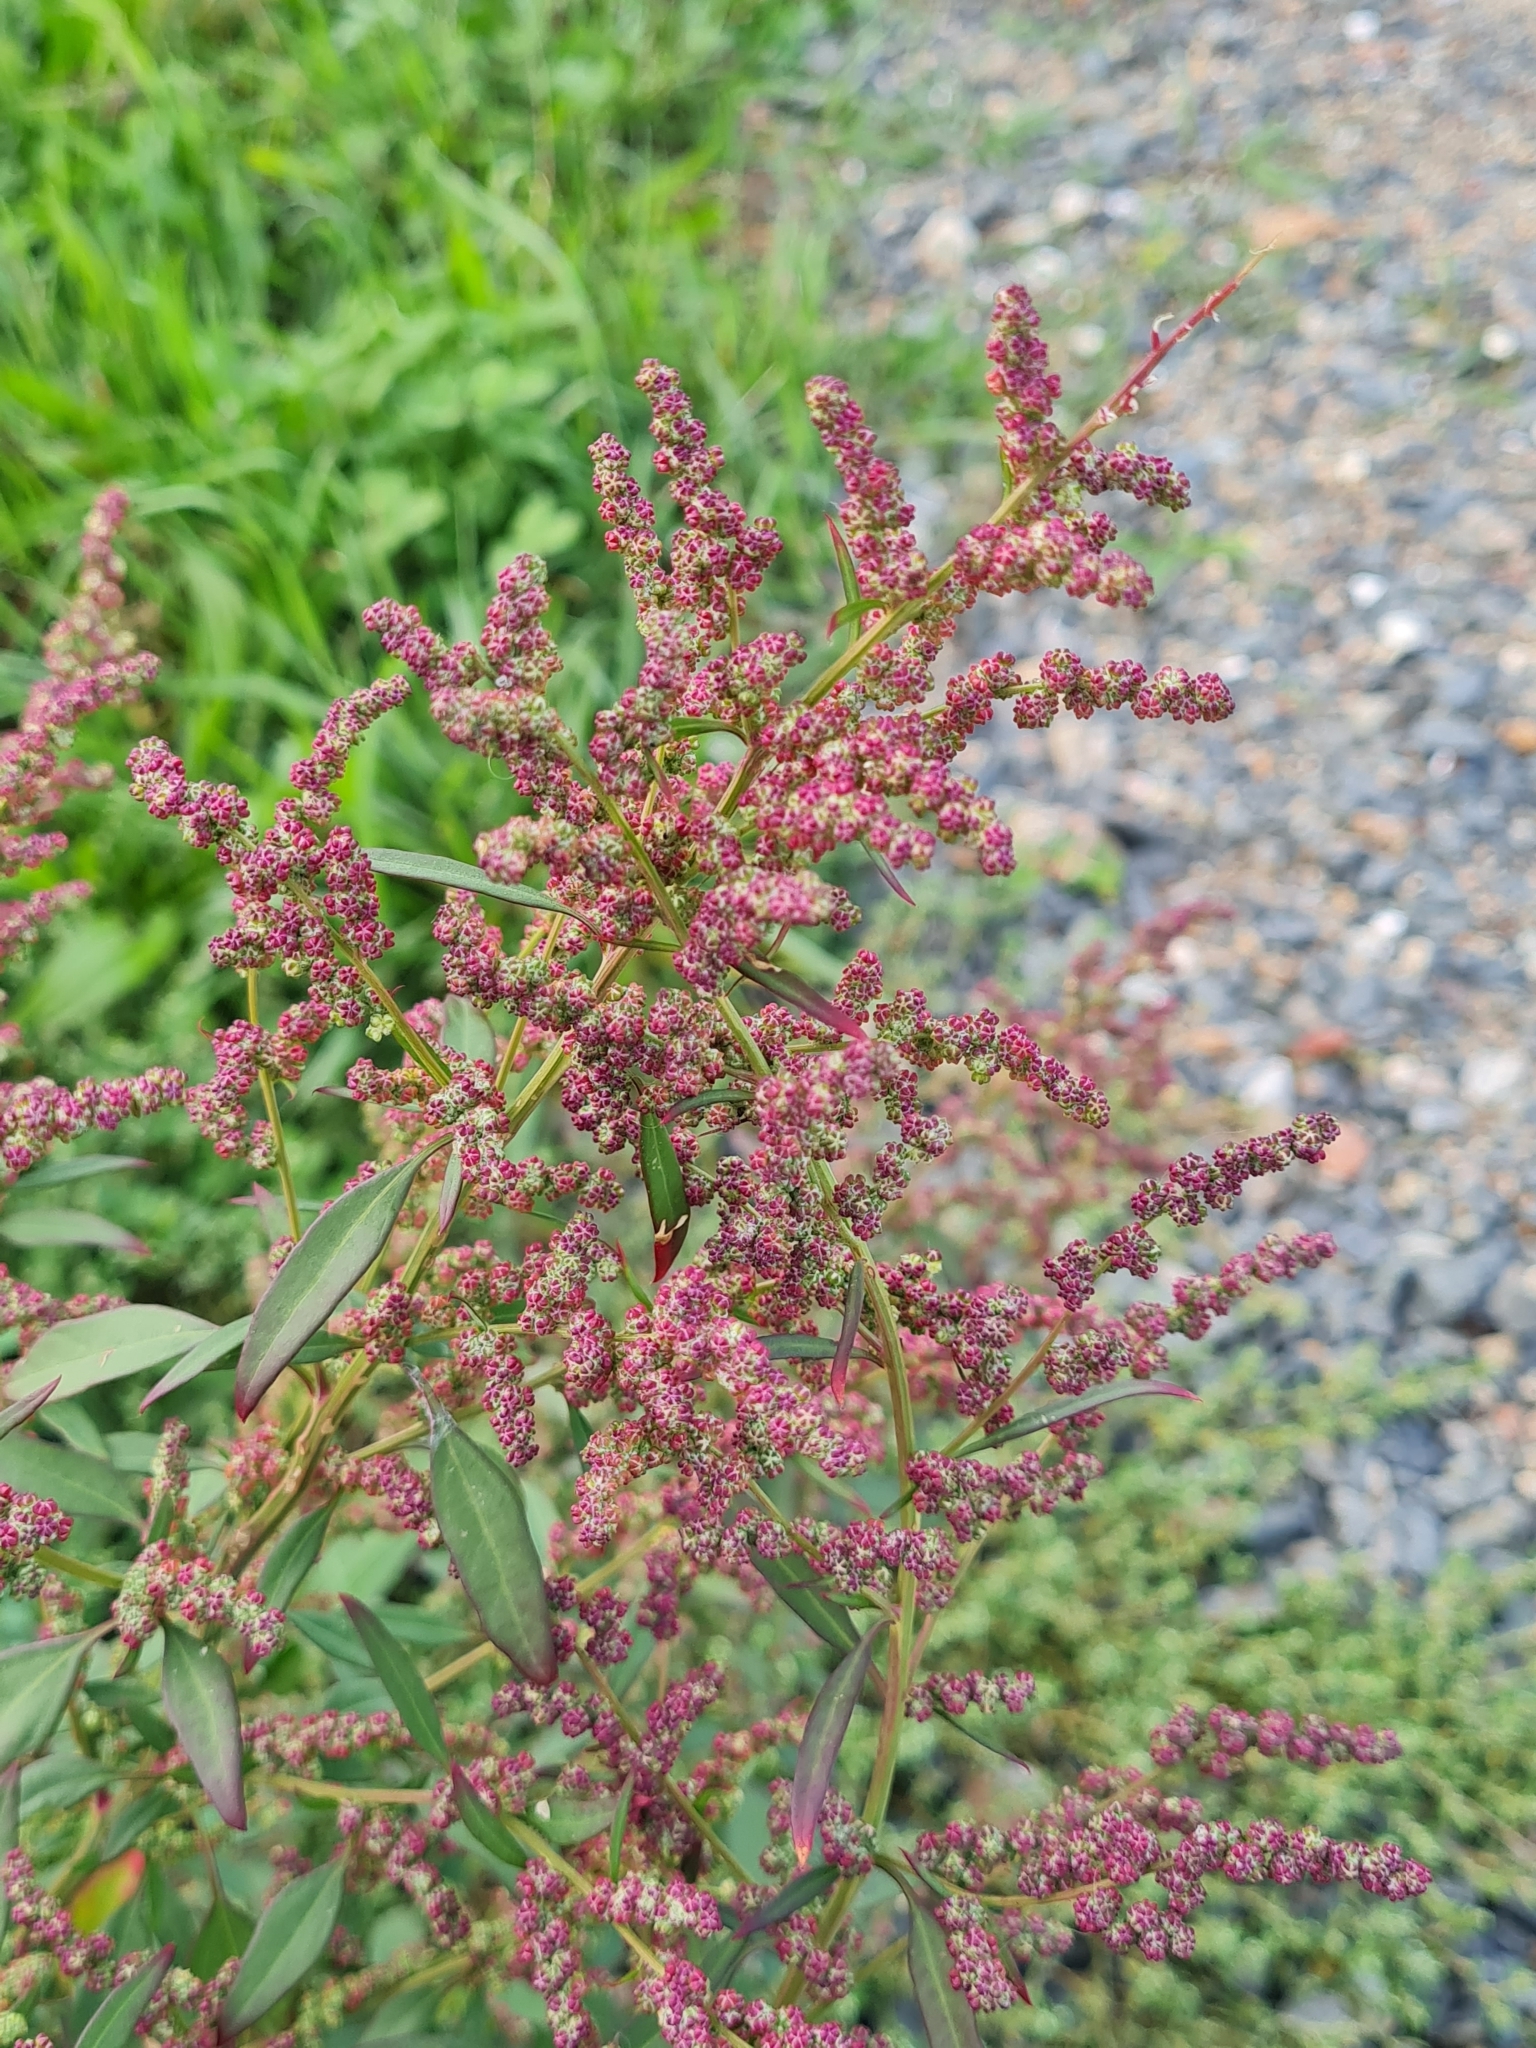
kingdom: Plantae
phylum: Tracheophyta
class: Magnoliopsida
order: Caryophyllales
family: Amaranthaceae
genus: Chenopodium
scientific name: Chenopodium album
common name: Fat-hen
